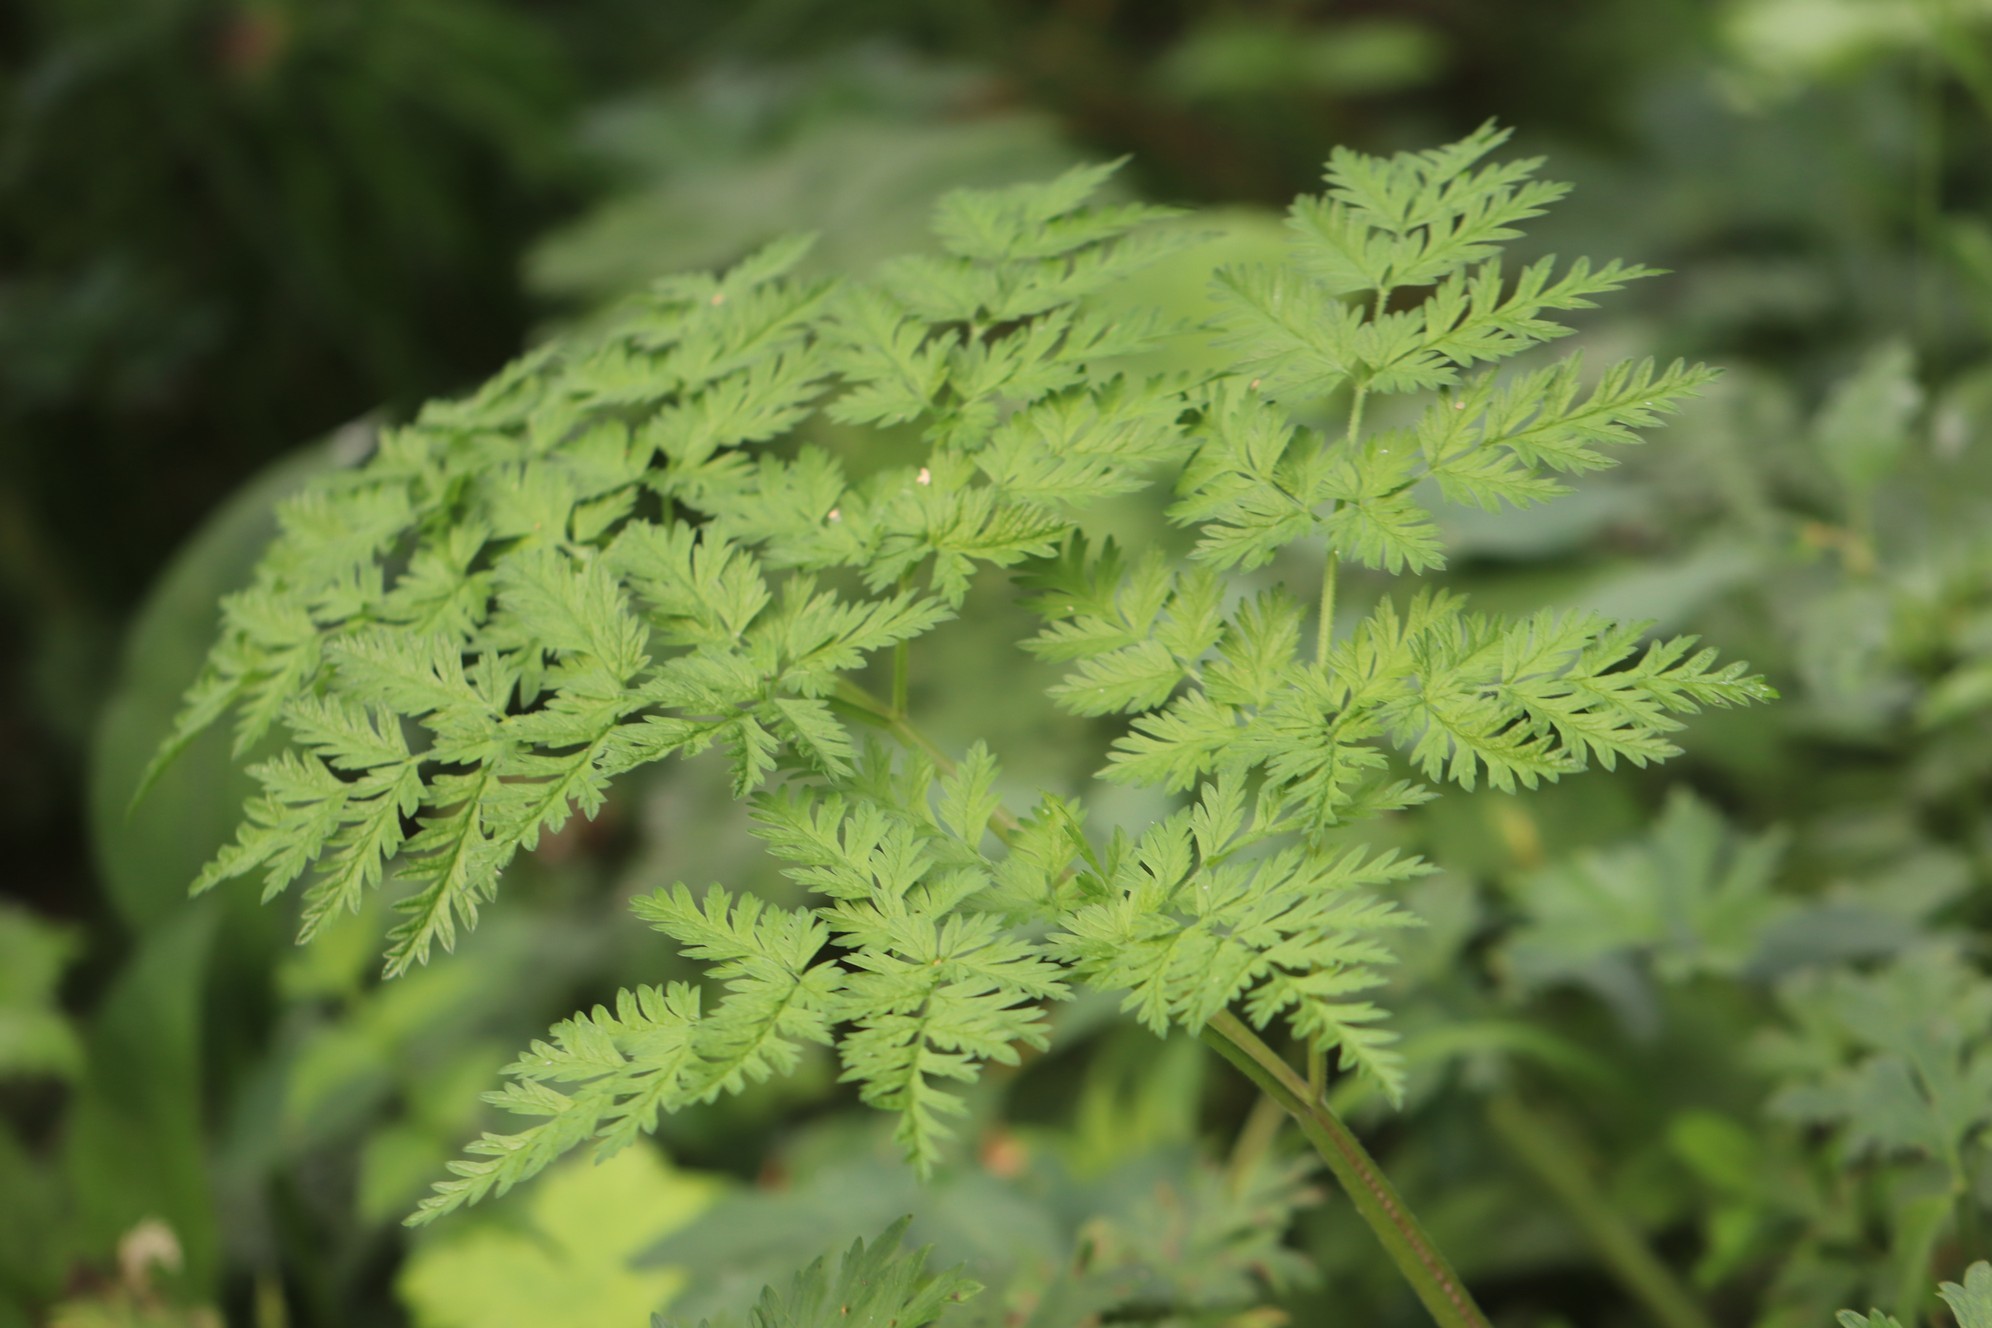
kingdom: Plantae
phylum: Tracheophyta
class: Magnoliopsida
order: Apiales
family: Apiaceae
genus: Anthriscus
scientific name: Anthriscus sylvestris
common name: Cow parsley
